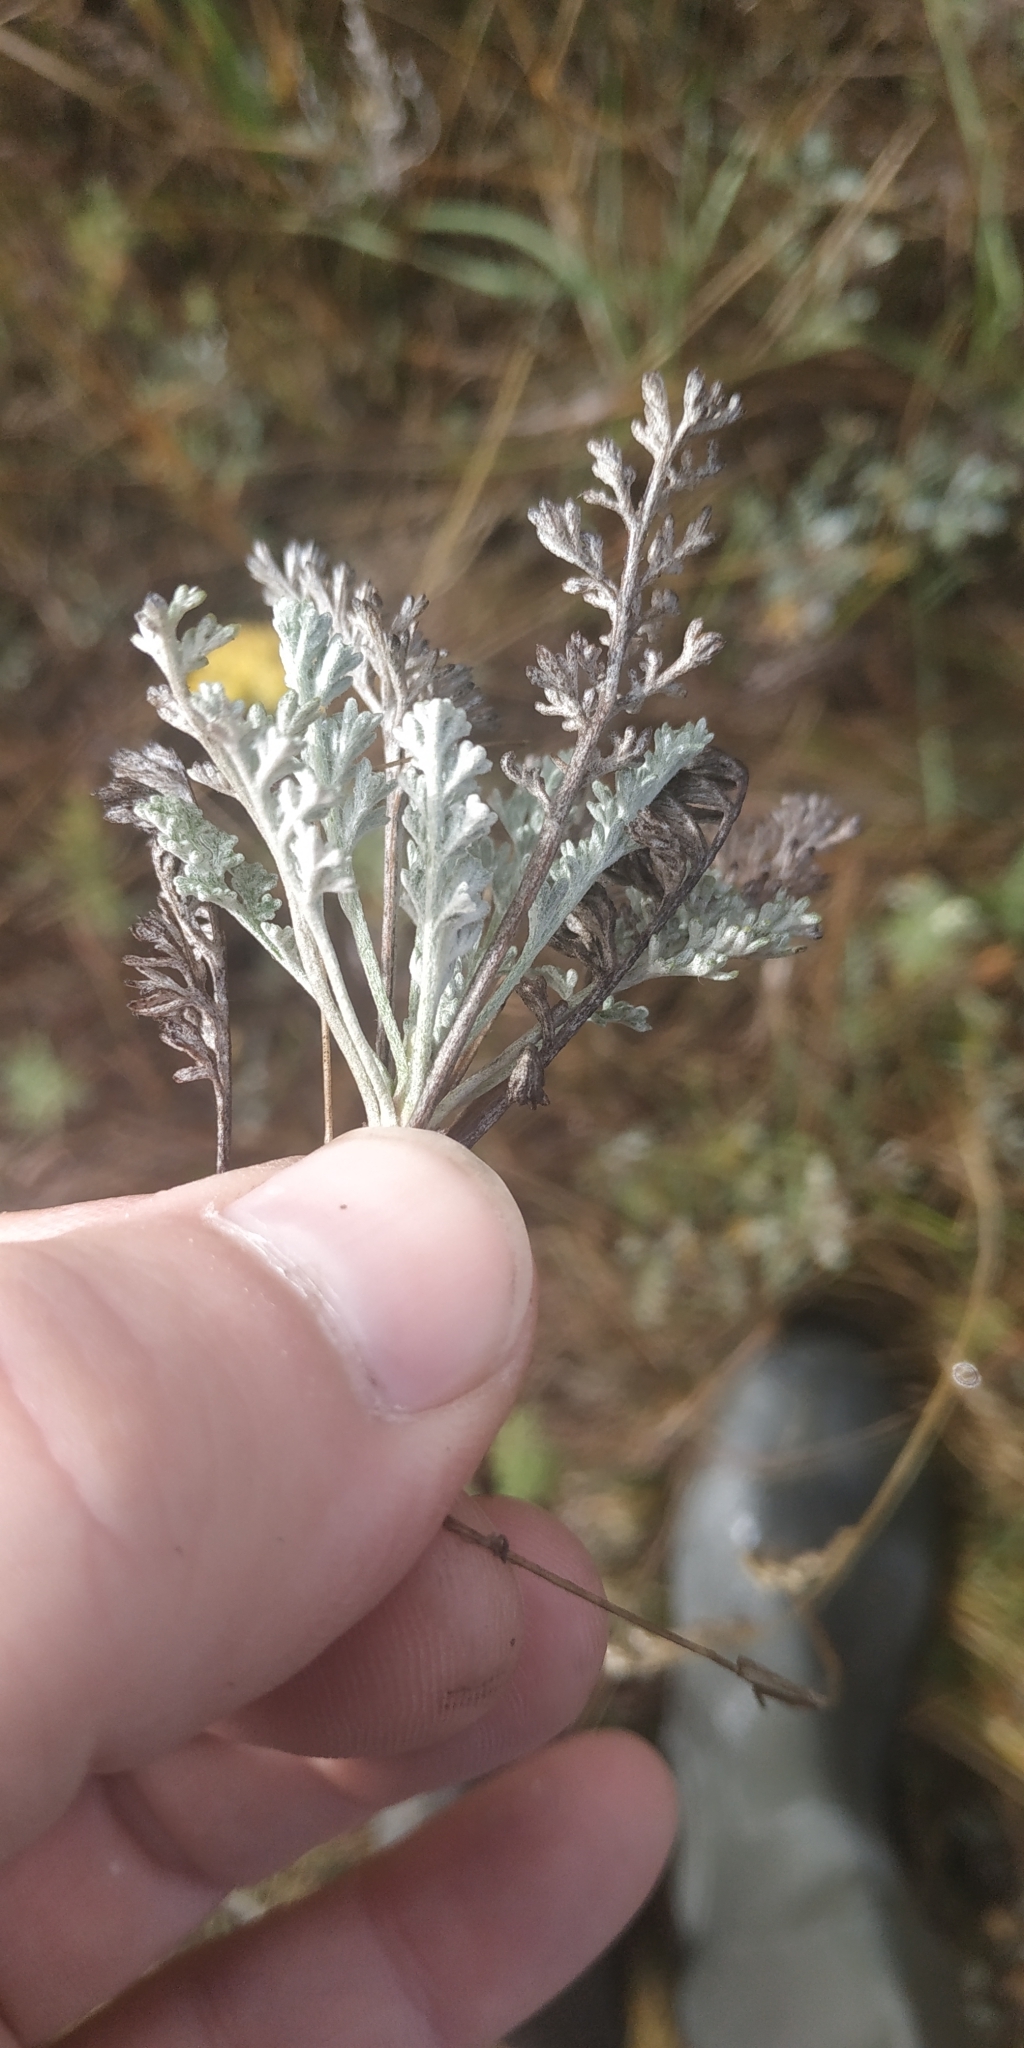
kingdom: Plantae
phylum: Tracheophyta
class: Magnoliopsida
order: Asterales
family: Asteraceae
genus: Artemisia
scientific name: Artemisia nitrosa
